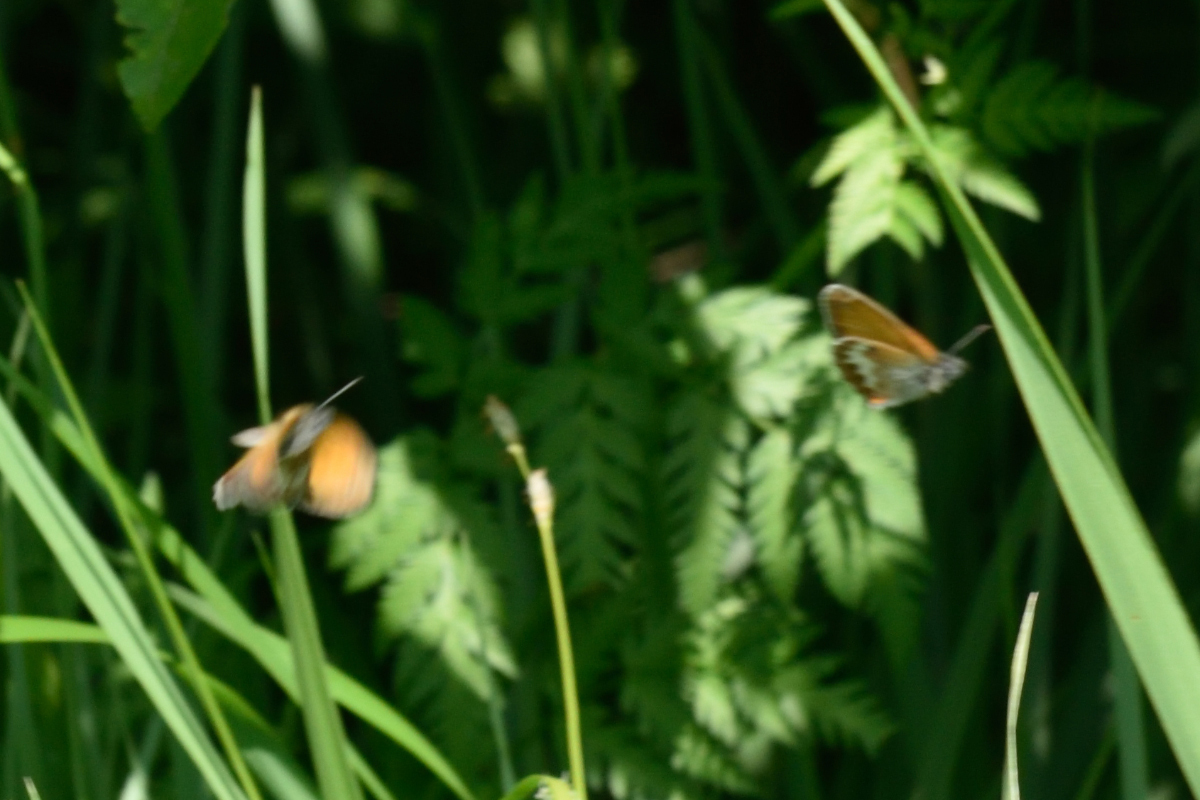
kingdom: Animalia
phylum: Arthropoda
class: Insecta
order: Lepidoptera
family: Nymphalidae
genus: Coenonympha
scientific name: Coenonympha arcania
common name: Pearly heath
